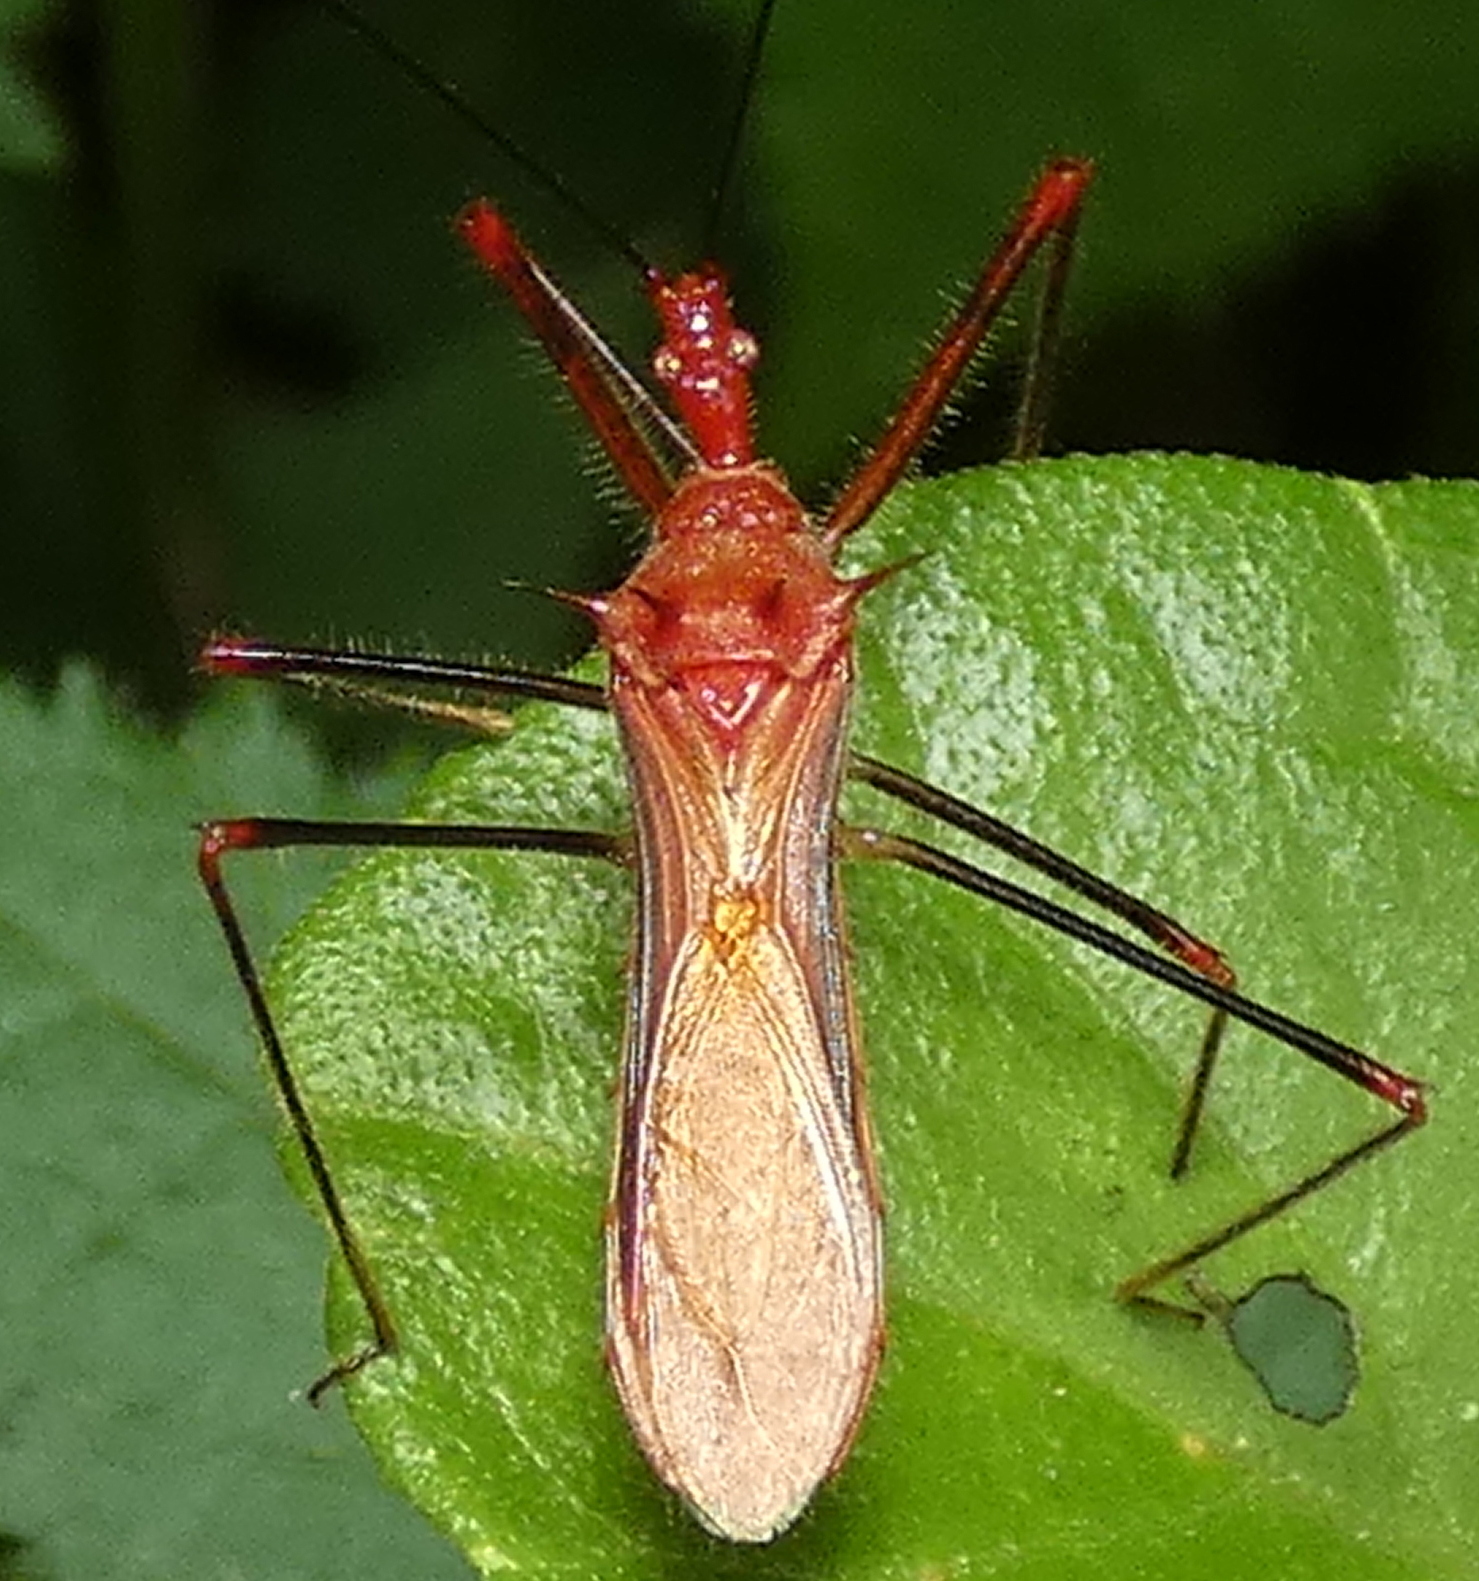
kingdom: Animalia
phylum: Arthropoda
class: Insecta
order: Hemiptera
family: Reduviidae
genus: Ricolla
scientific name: Ricolla quadrispinosa
